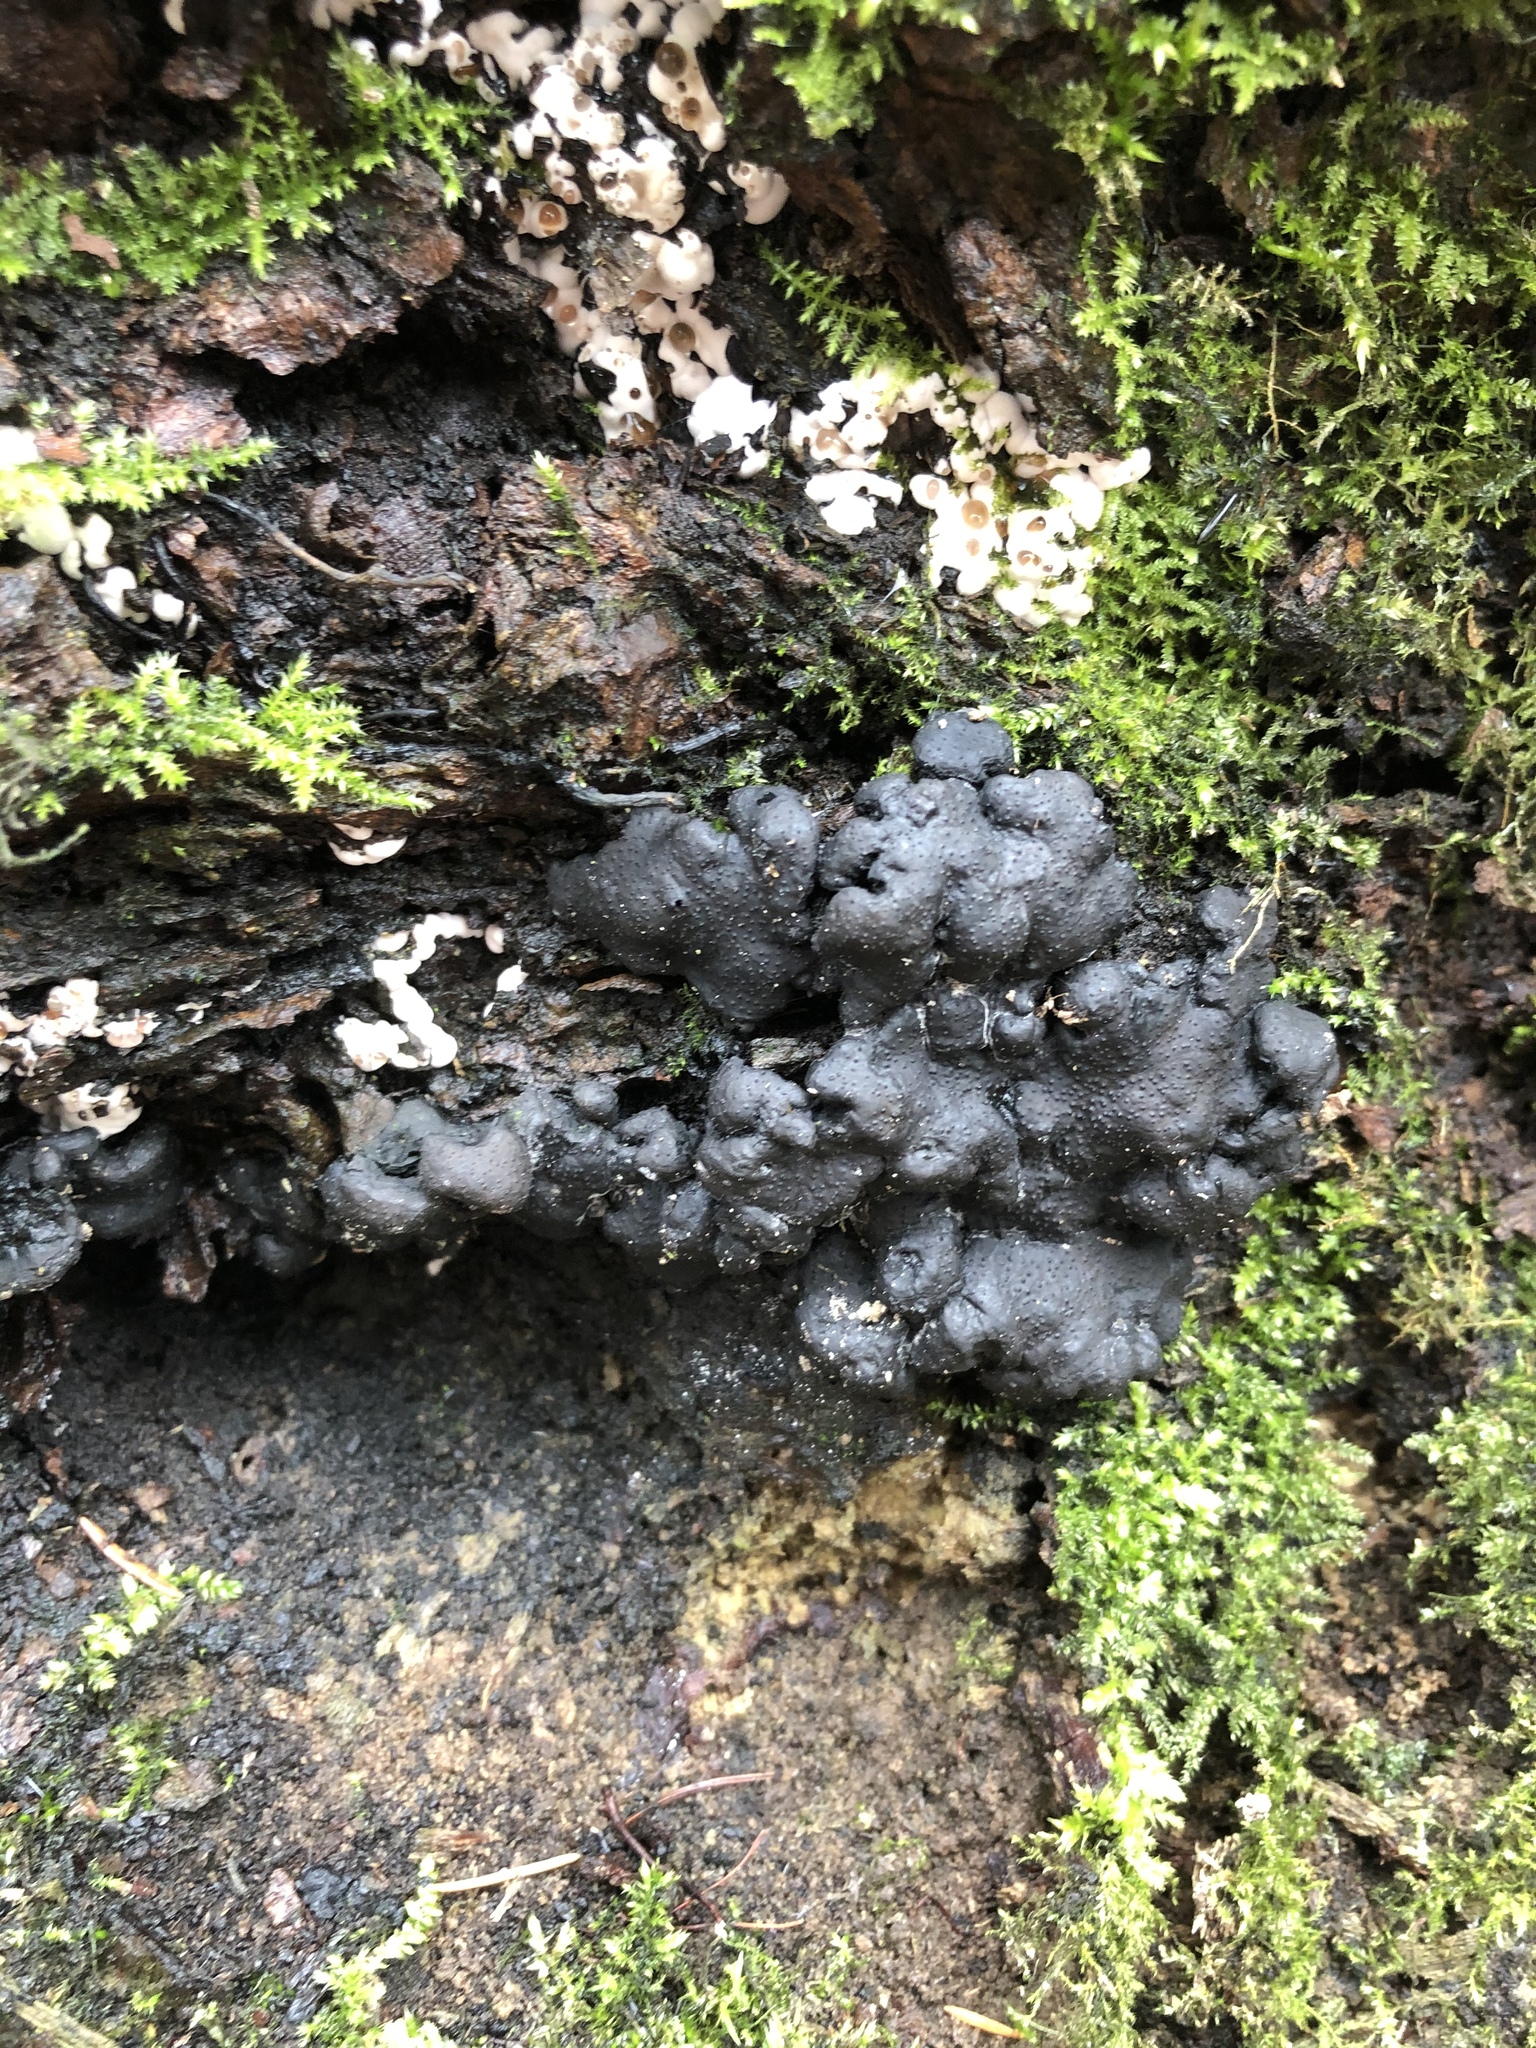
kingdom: Fungi
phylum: Ascomycota
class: Sordariomycetes
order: Xylariales
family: Xylariaceae
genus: Kretzschmaria
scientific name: Kretzschmaria deusta
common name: Brittle cinder
